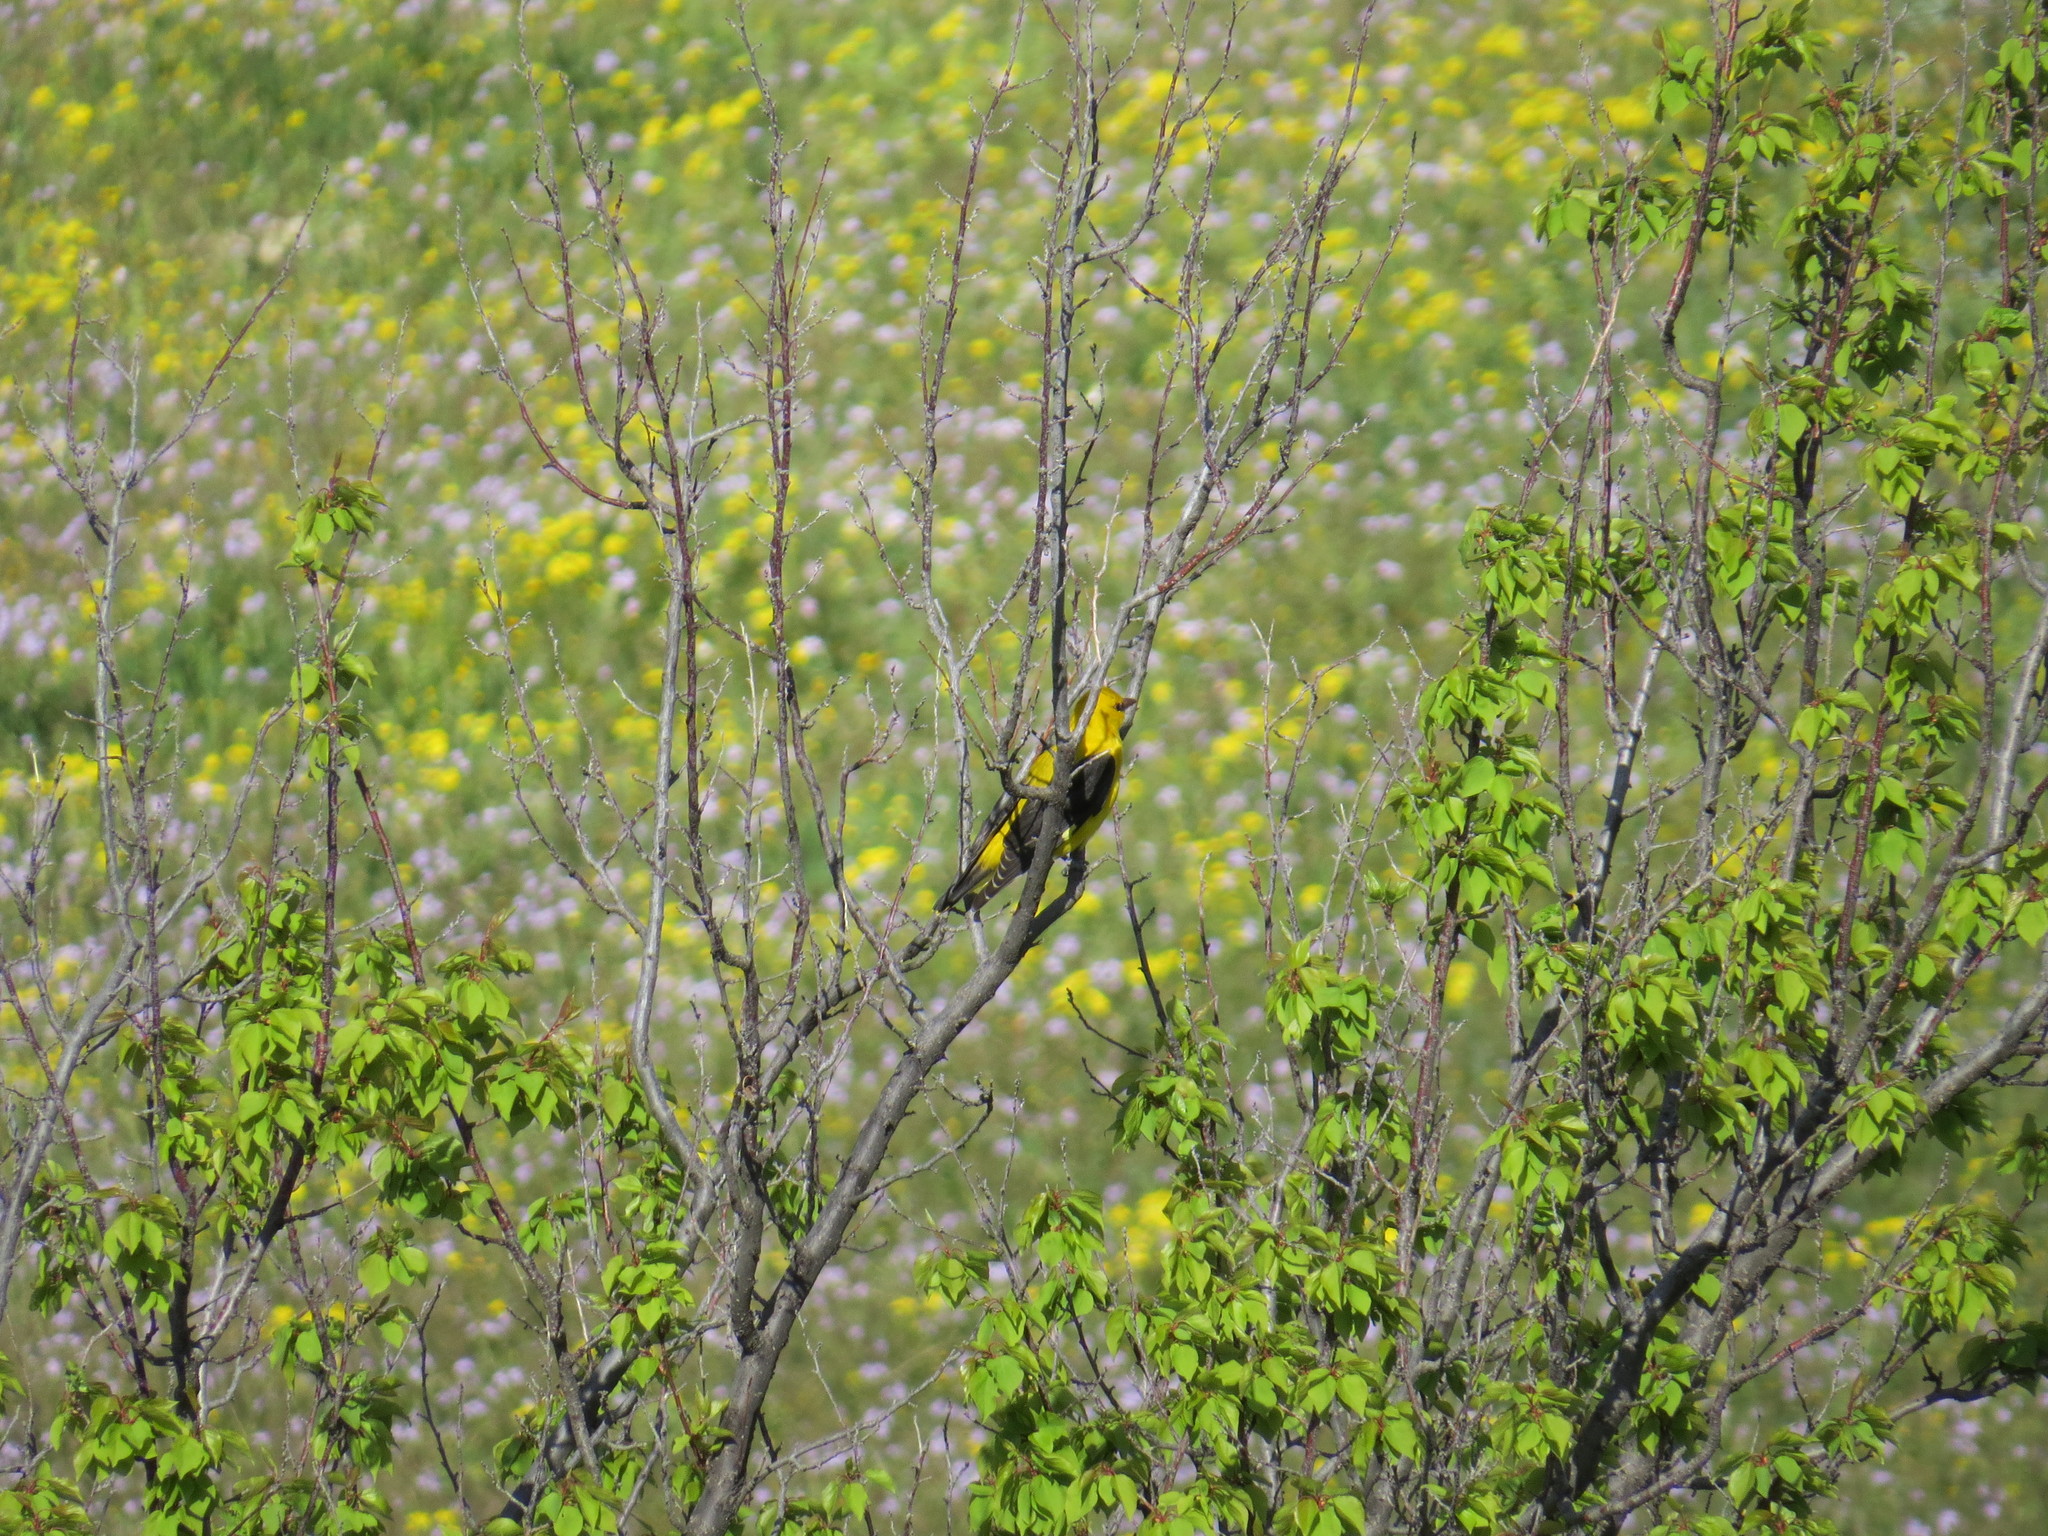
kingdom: Animalia
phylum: Chordata
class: Aves
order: Passeriformes
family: Oriolidae
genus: Oriolus
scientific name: Oriolus oriolus
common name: Eurasian golden oriole
